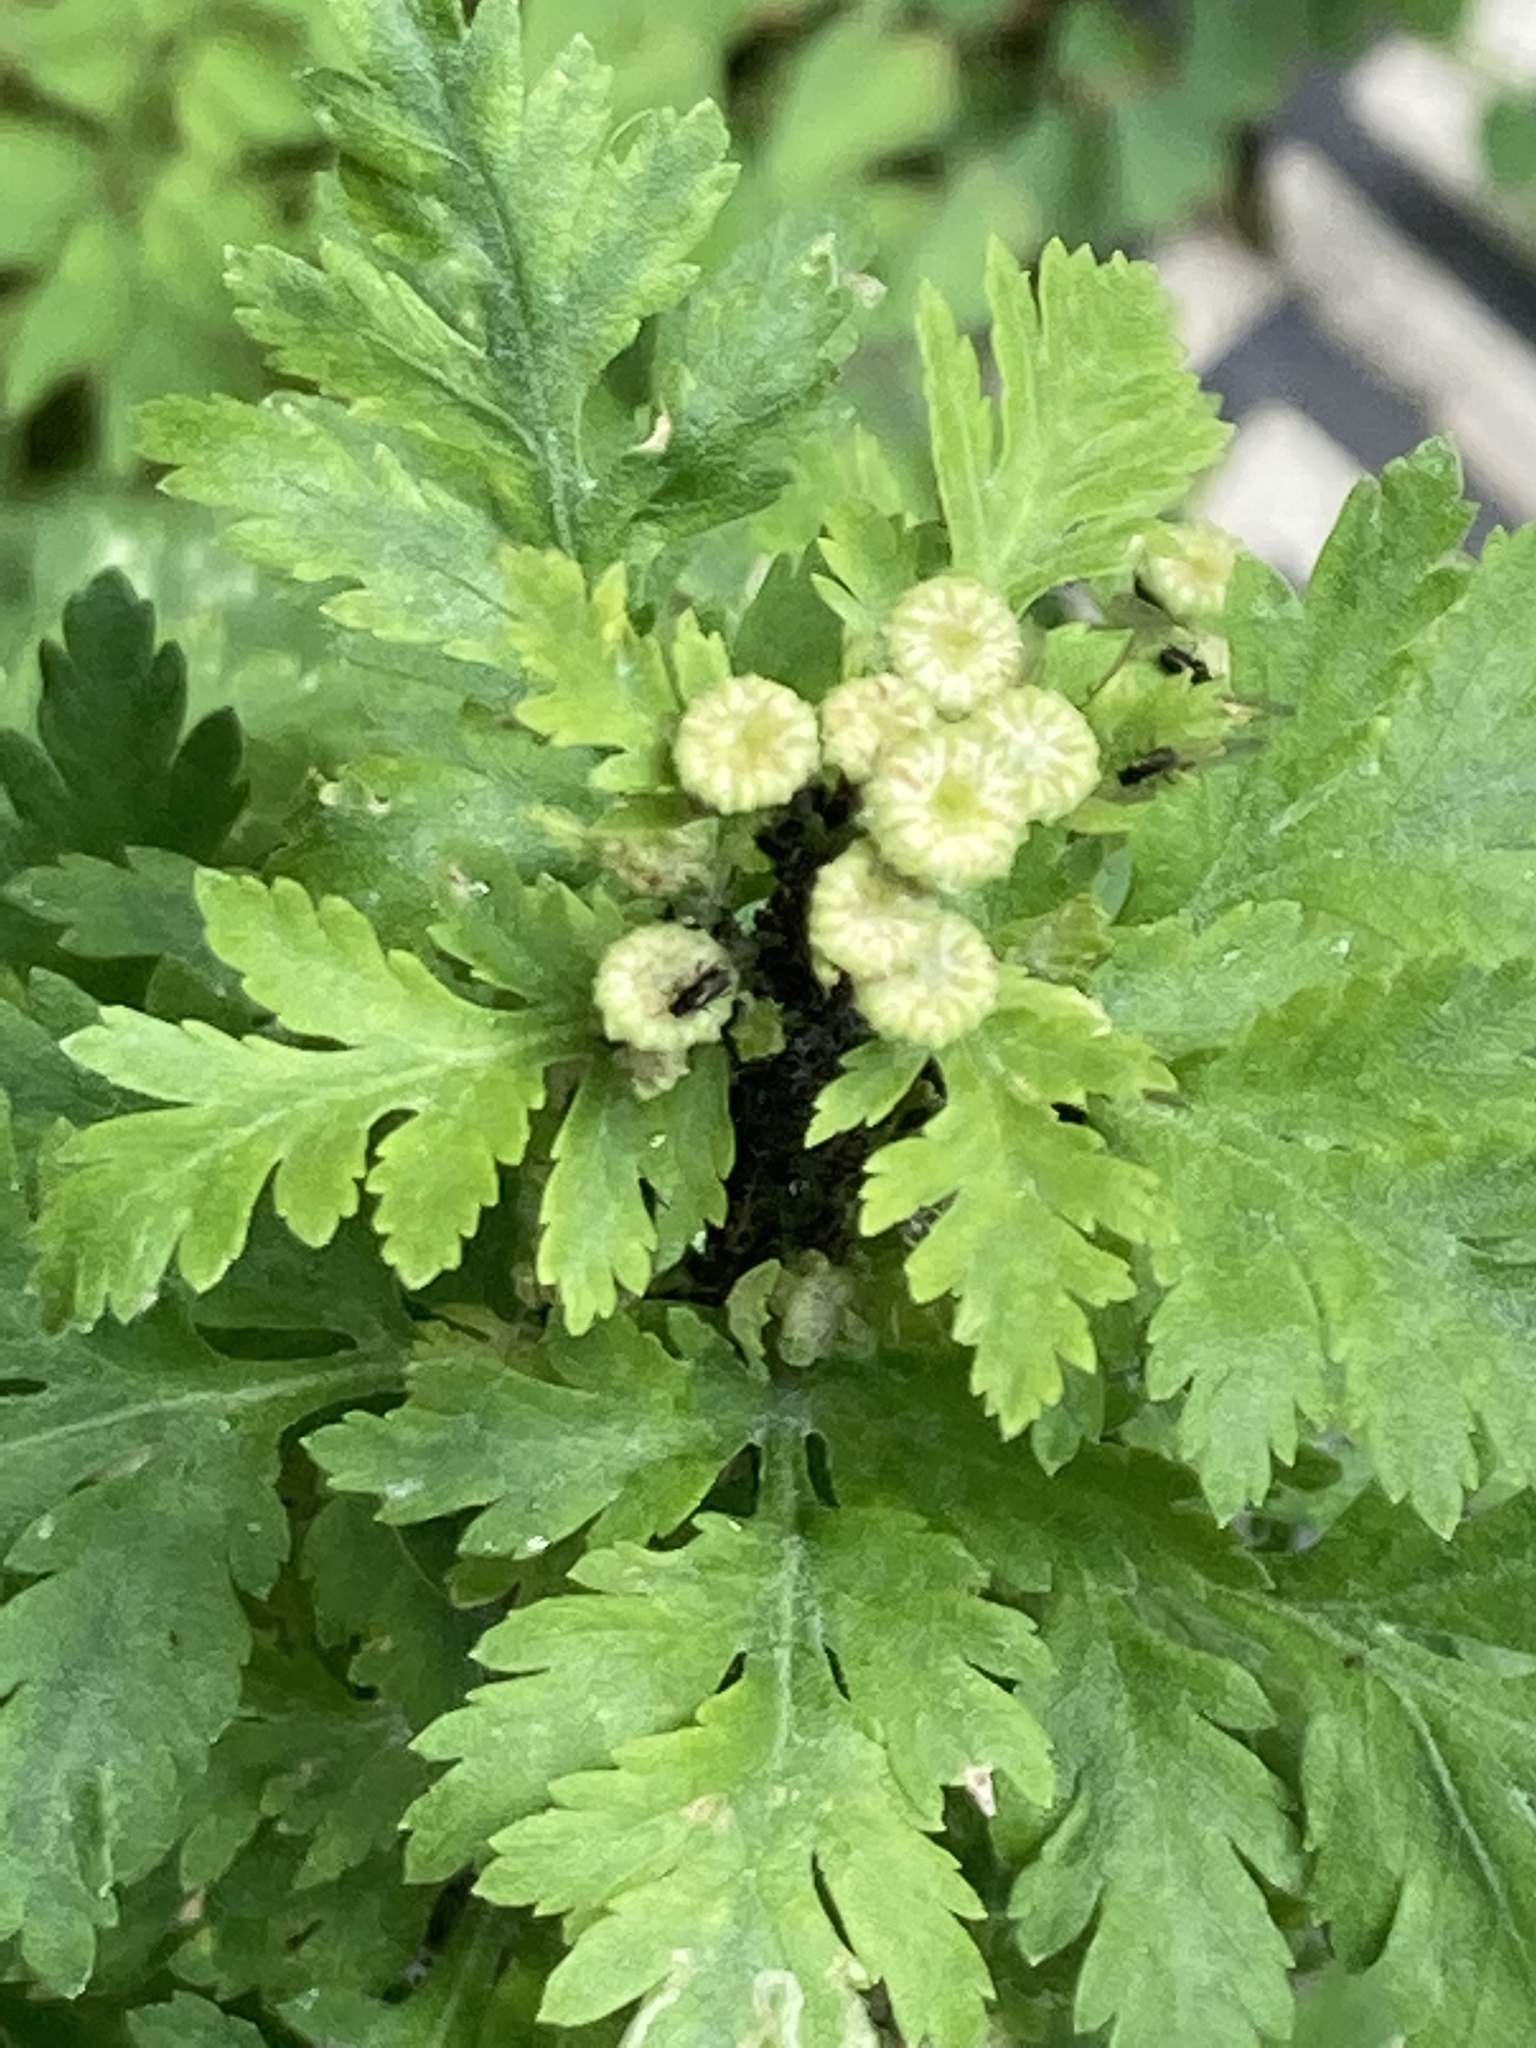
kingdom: Plantae
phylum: Tracheophyta
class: Magnoliopsida
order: Asterales
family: Asteraceae
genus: Tanacetum
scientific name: Tanacetum parthenium
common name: Feverfew
